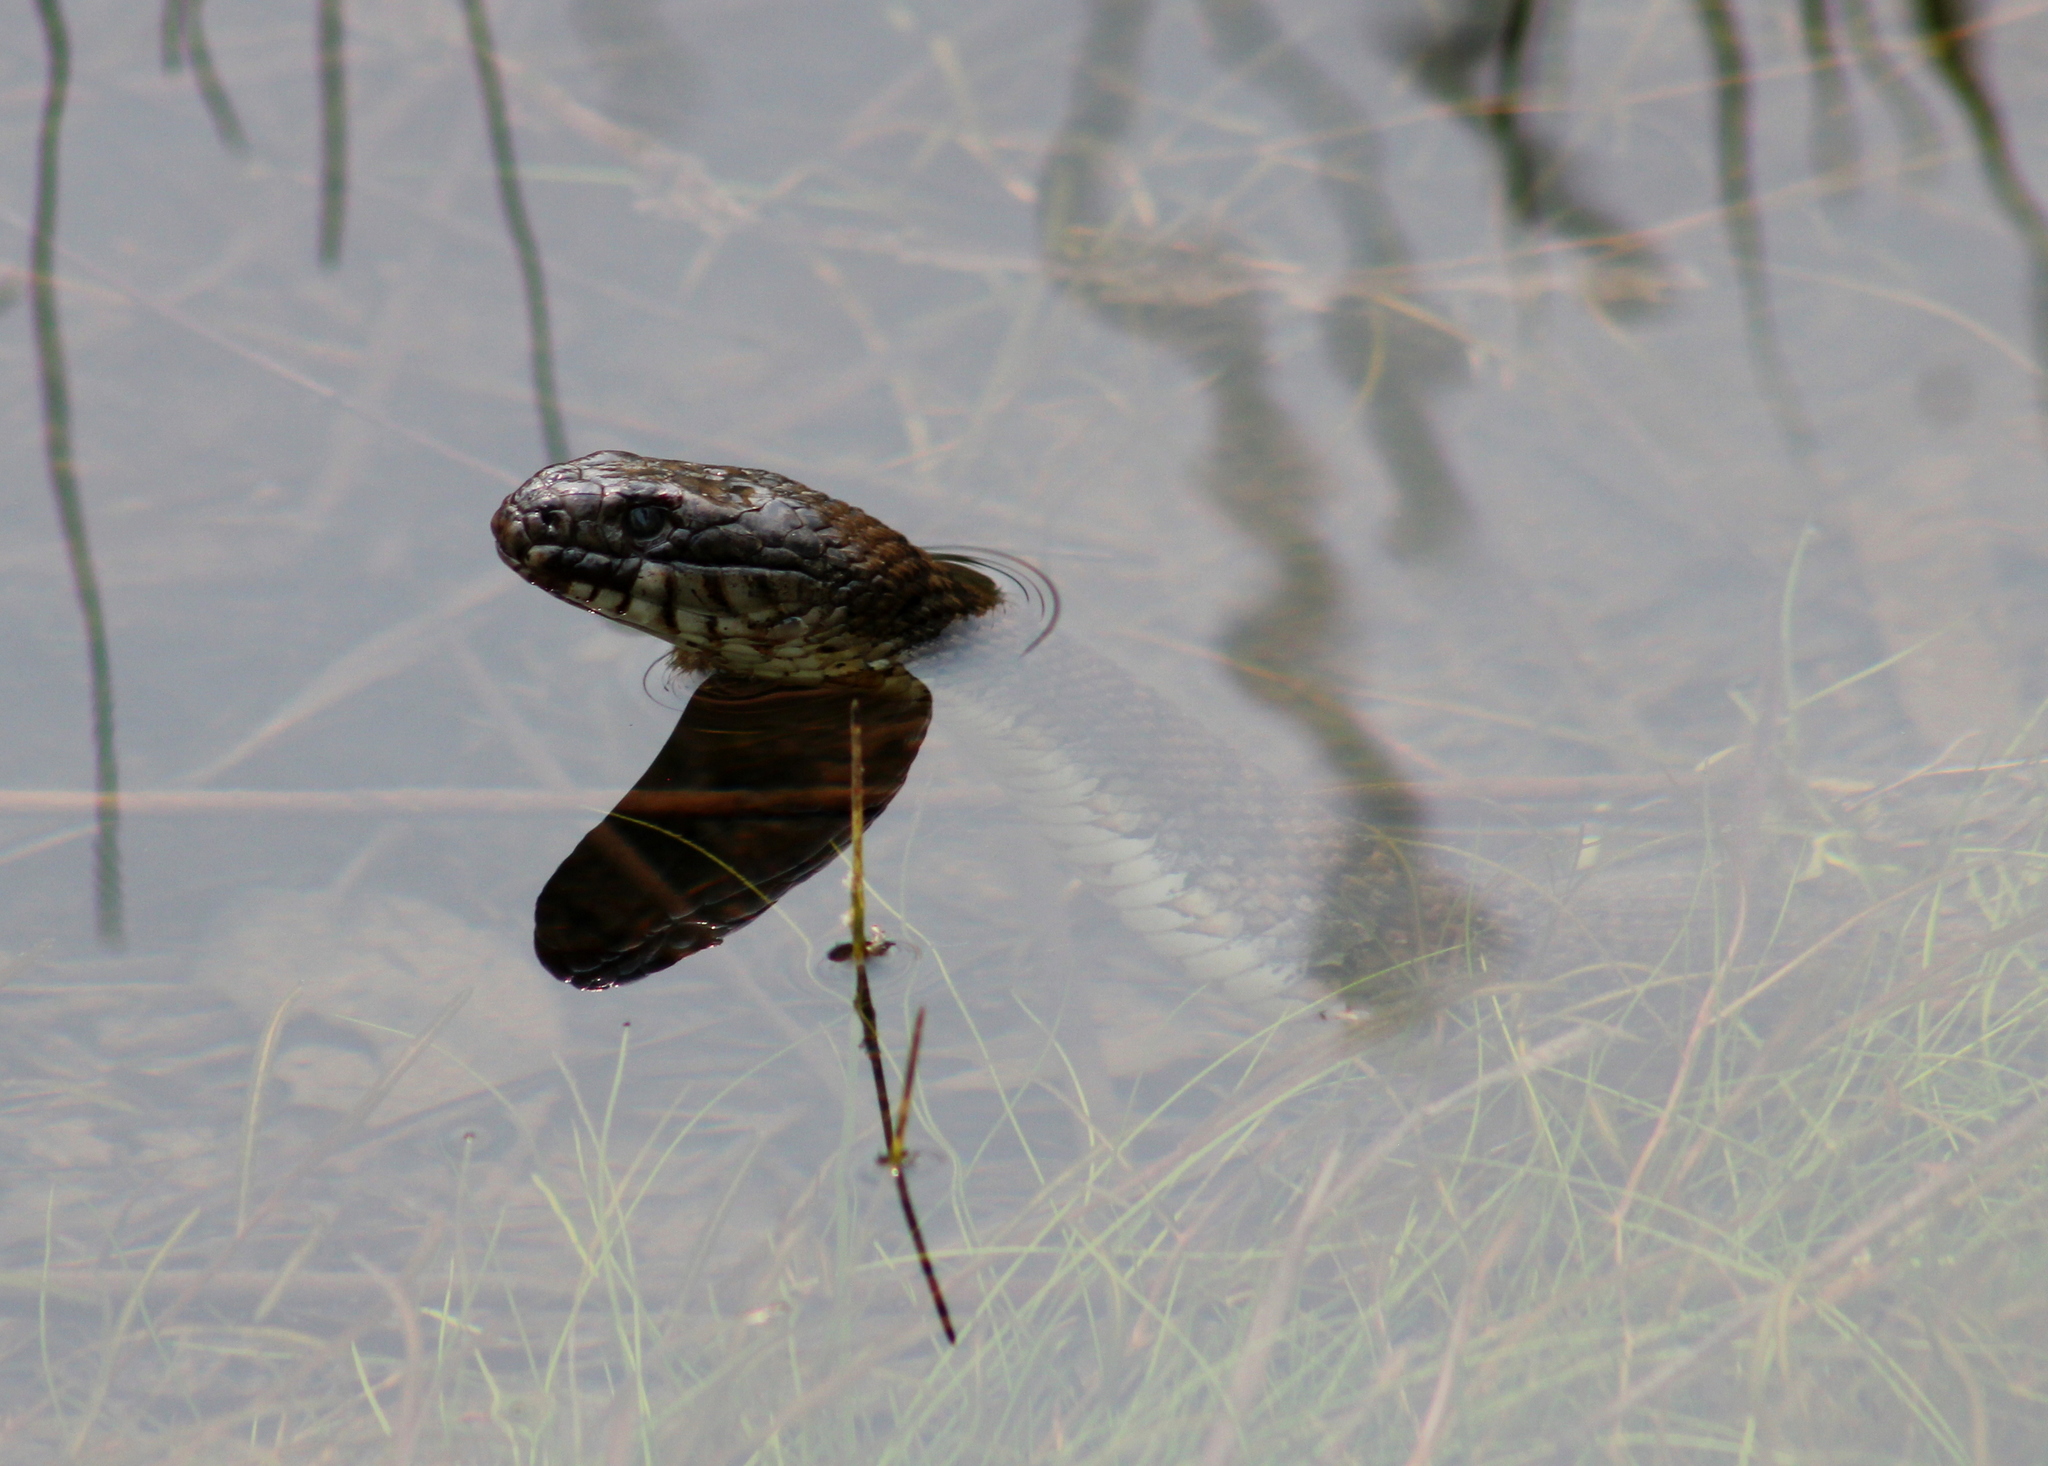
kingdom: Animalia
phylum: Chordata
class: Squamata
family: Colubridae
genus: Nerodia
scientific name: Nerodia sipedon
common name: Northern water snake
